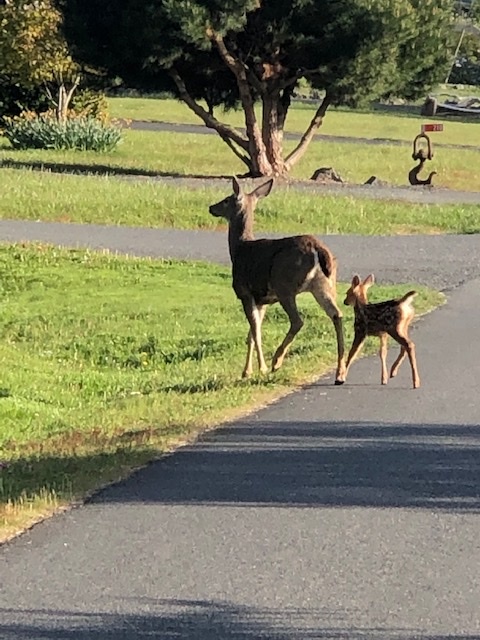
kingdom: Animalia
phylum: Chordata
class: Mammalia
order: Artiodactyla
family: Cervidae
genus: Odocoileus
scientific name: Odocoileus hemionus
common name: Mule deer
